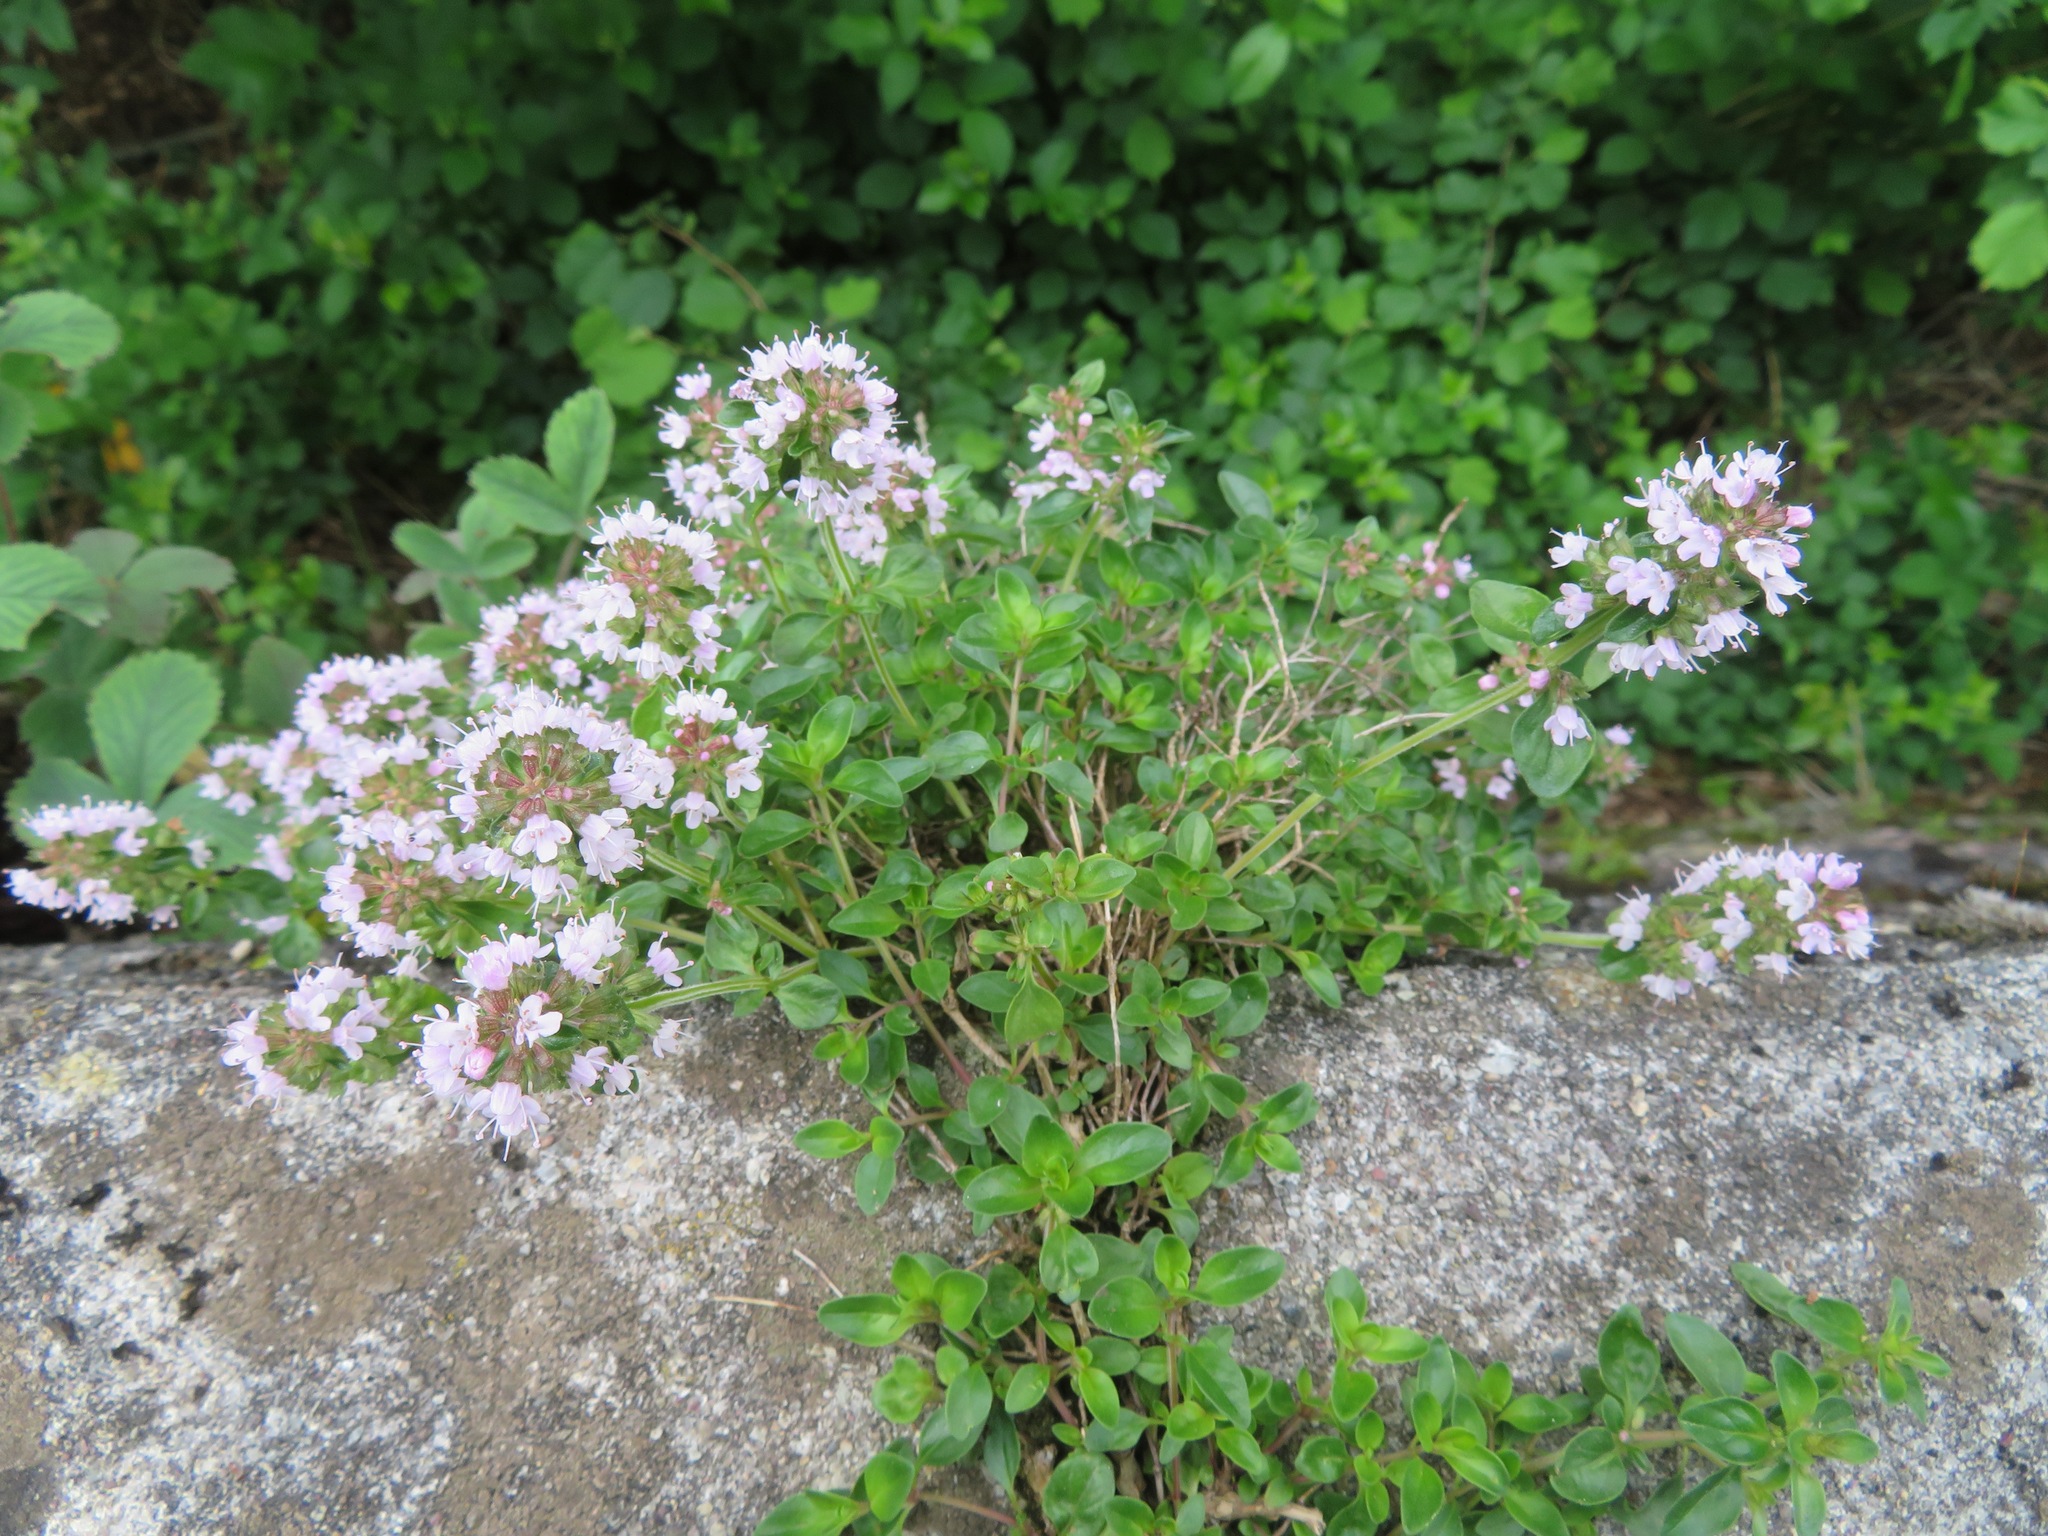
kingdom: Plantae
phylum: Tracheophyta
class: Magnoliopsida
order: Lamiales
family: Lamiaceae
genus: Thymus
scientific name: Thymus pulegioides
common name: Large thyme
